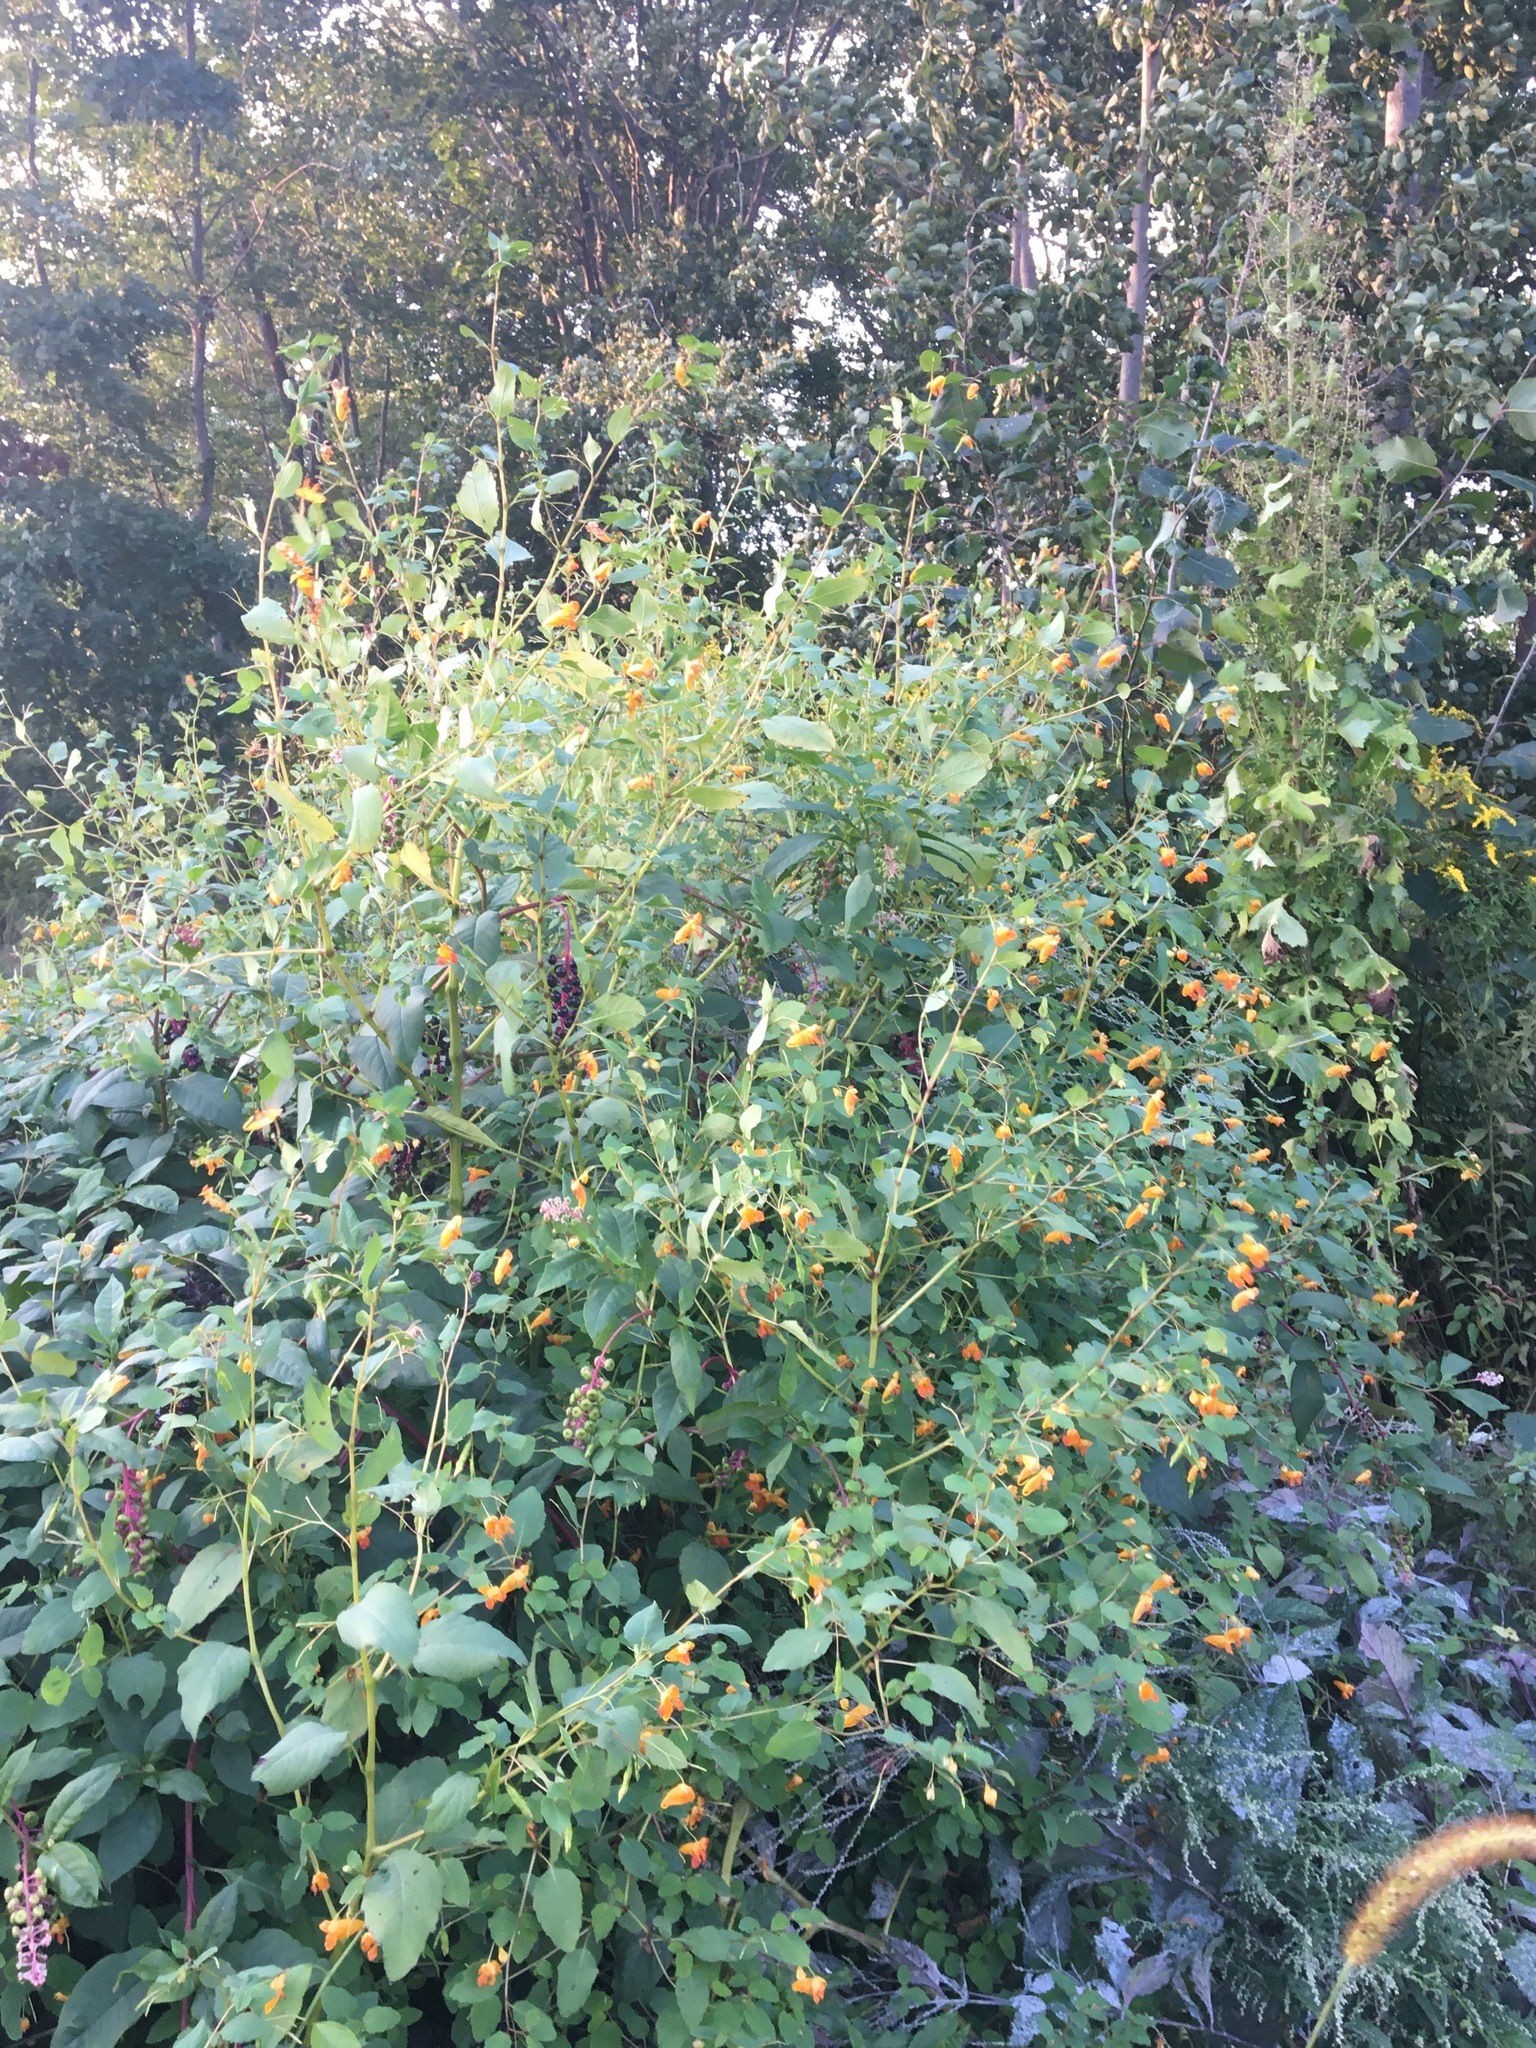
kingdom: Plantae
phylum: Tracheophyta
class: Magnoliopsida
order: Ericales
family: Balsaminaceae
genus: Impatiens
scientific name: Impatiens capensis
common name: Orange balsam
